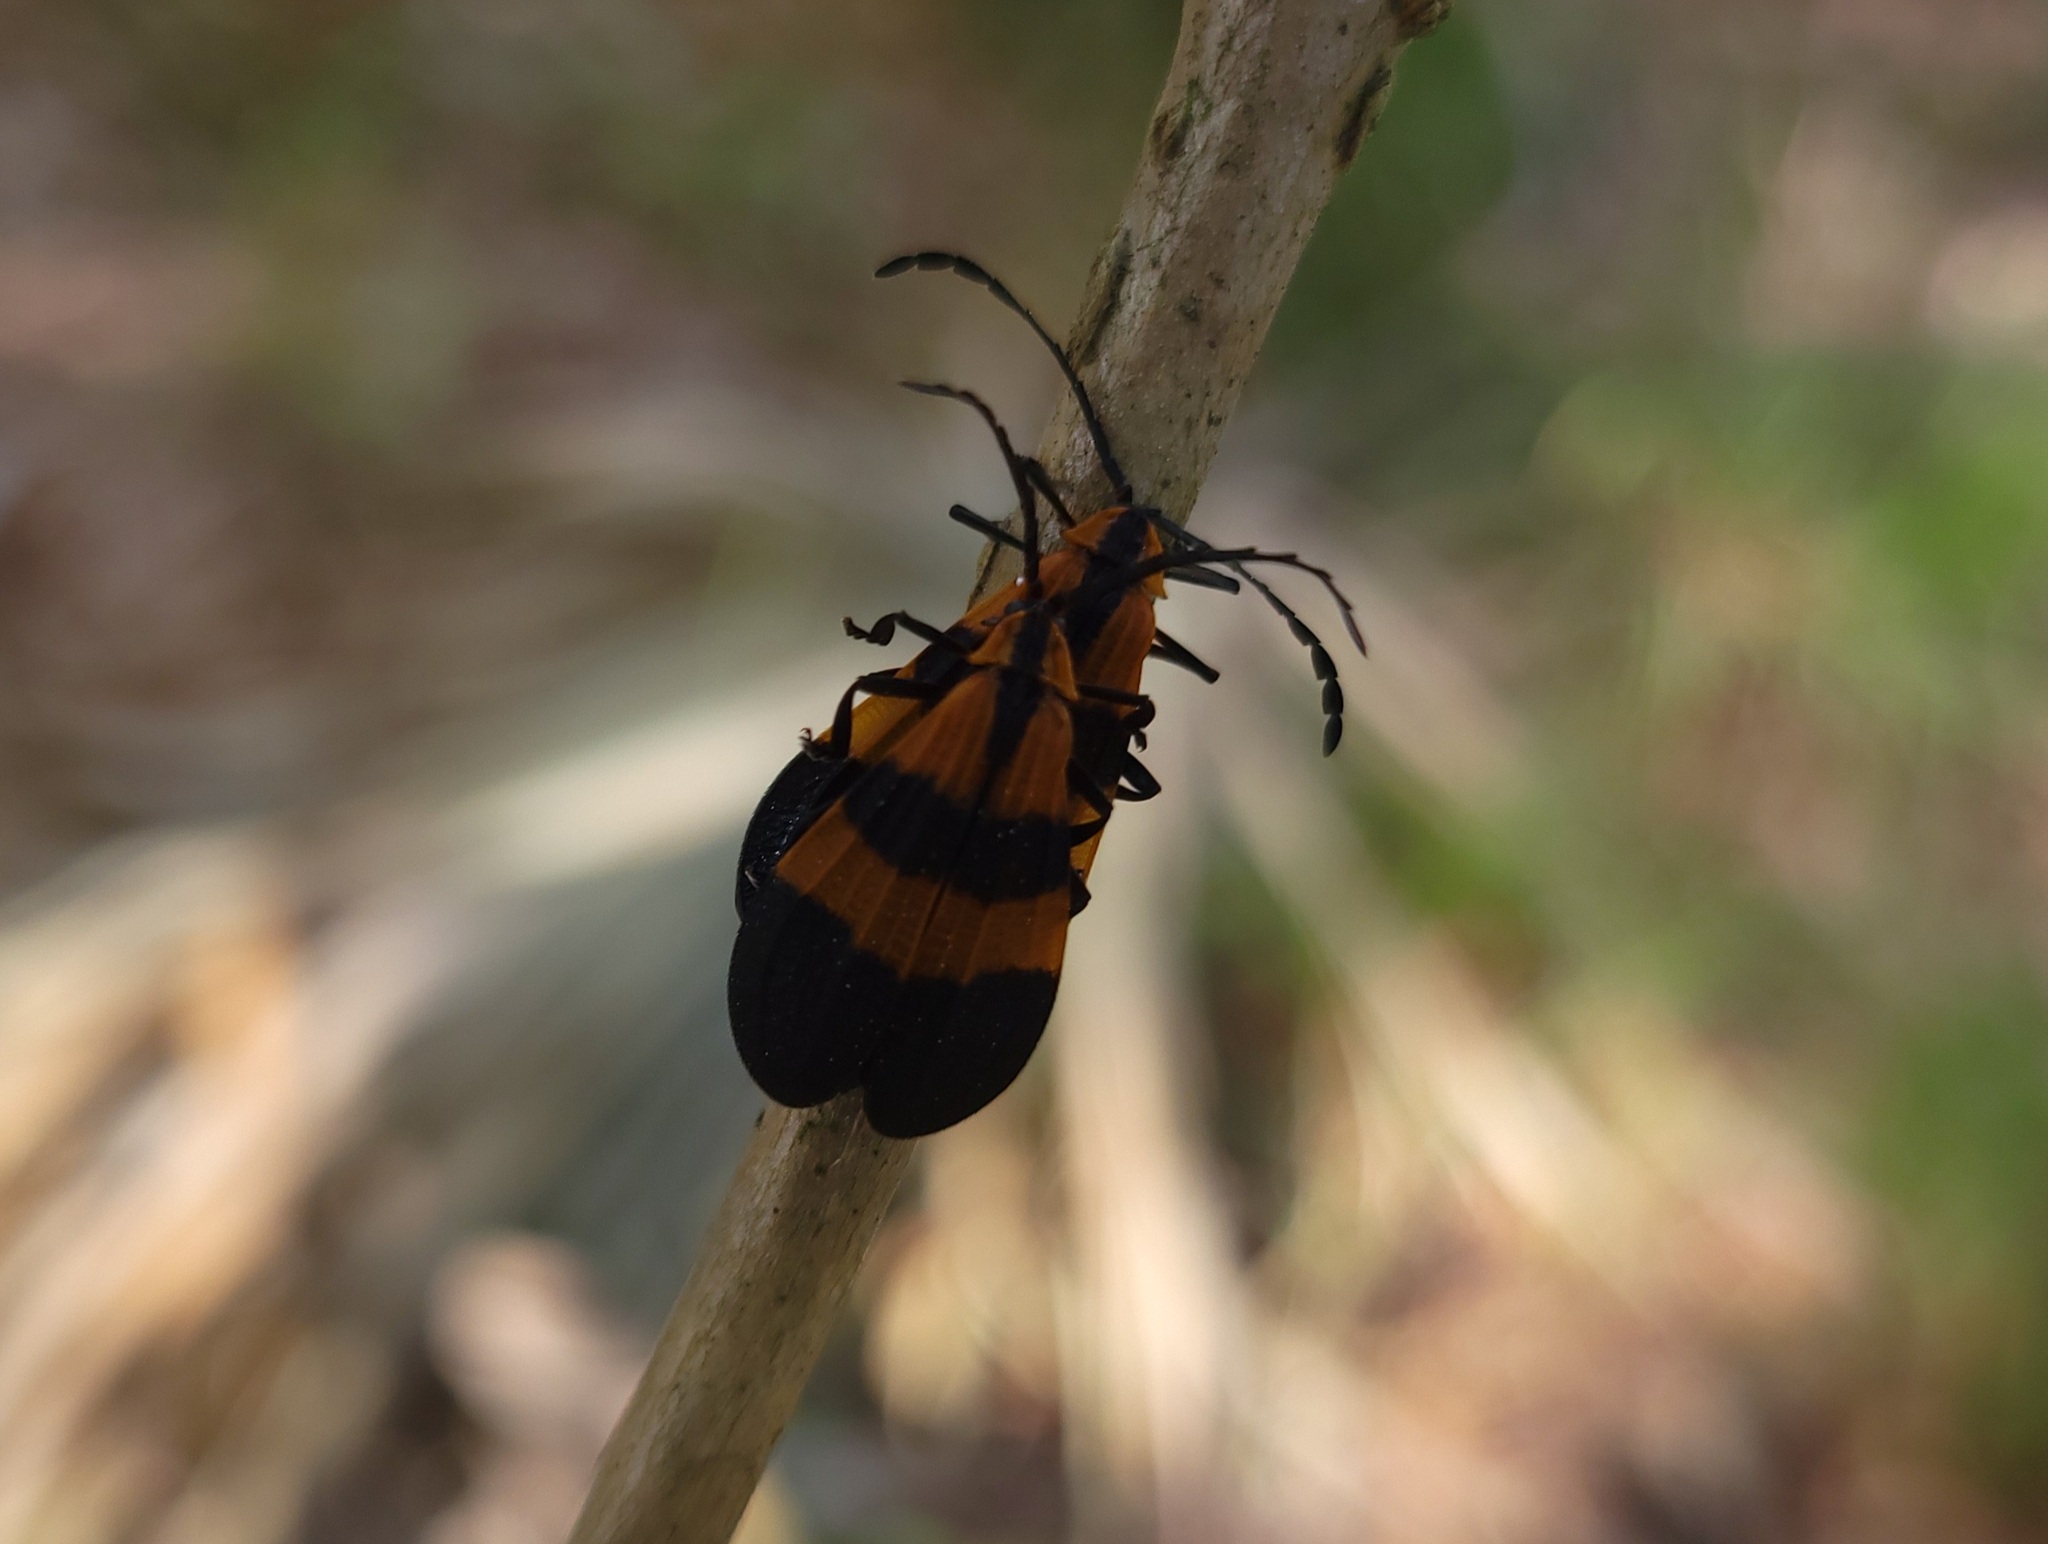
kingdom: Animalia
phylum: Arthropoda
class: Insecta
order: Coleoptera
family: Lycidae
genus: Calopteron
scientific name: Calopteron discrepans
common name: Banded net-winged beetle
